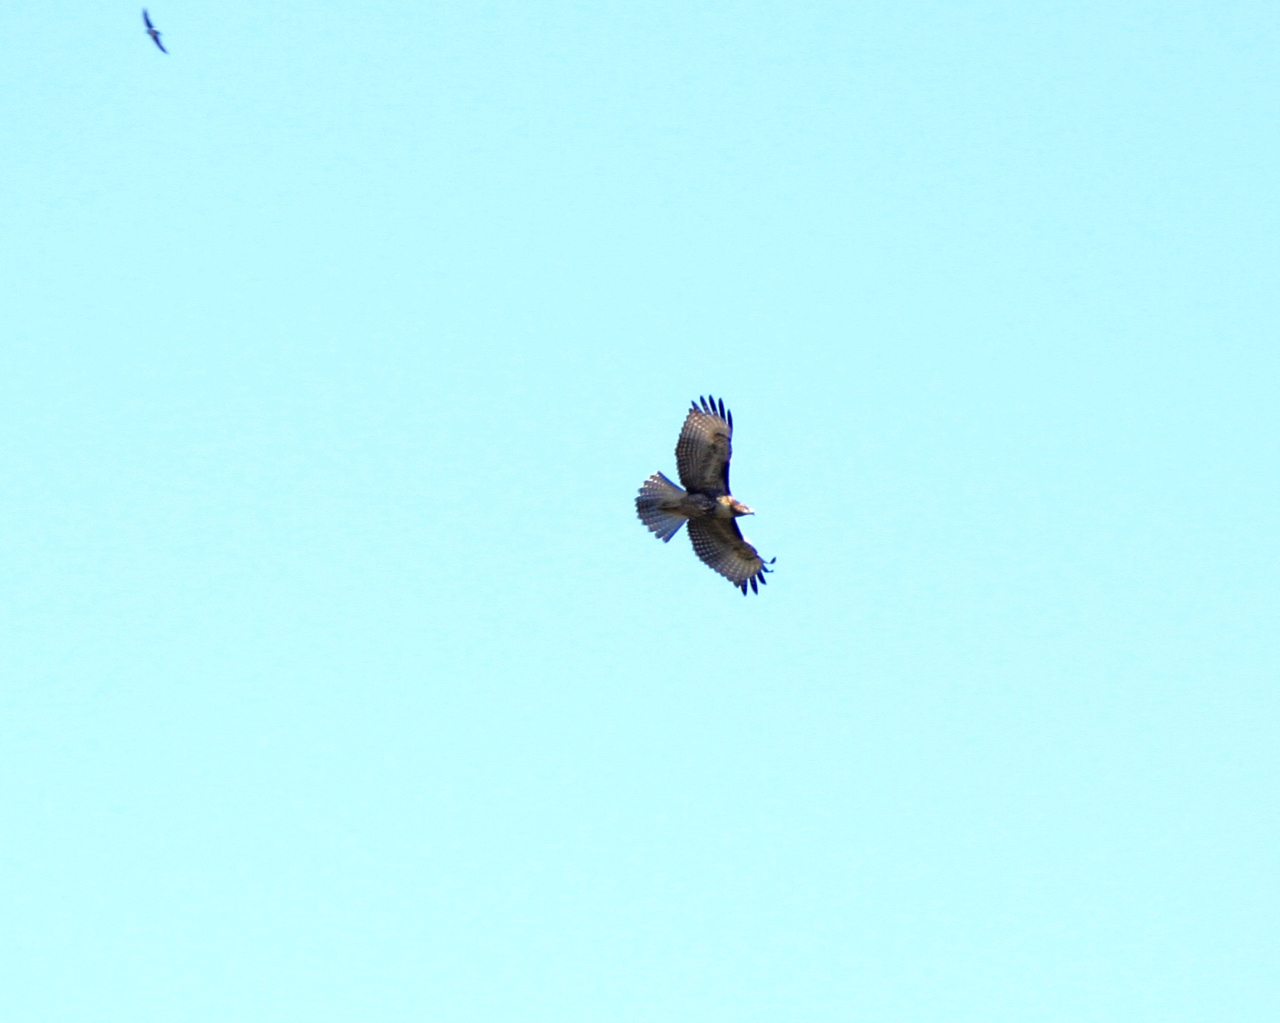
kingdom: Animalia
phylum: Chordata
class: Aves
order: Accipitriformes
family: Accipitridae
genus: Buteo
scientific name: Buteo jamaicensis
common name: Red-tailed hawk
